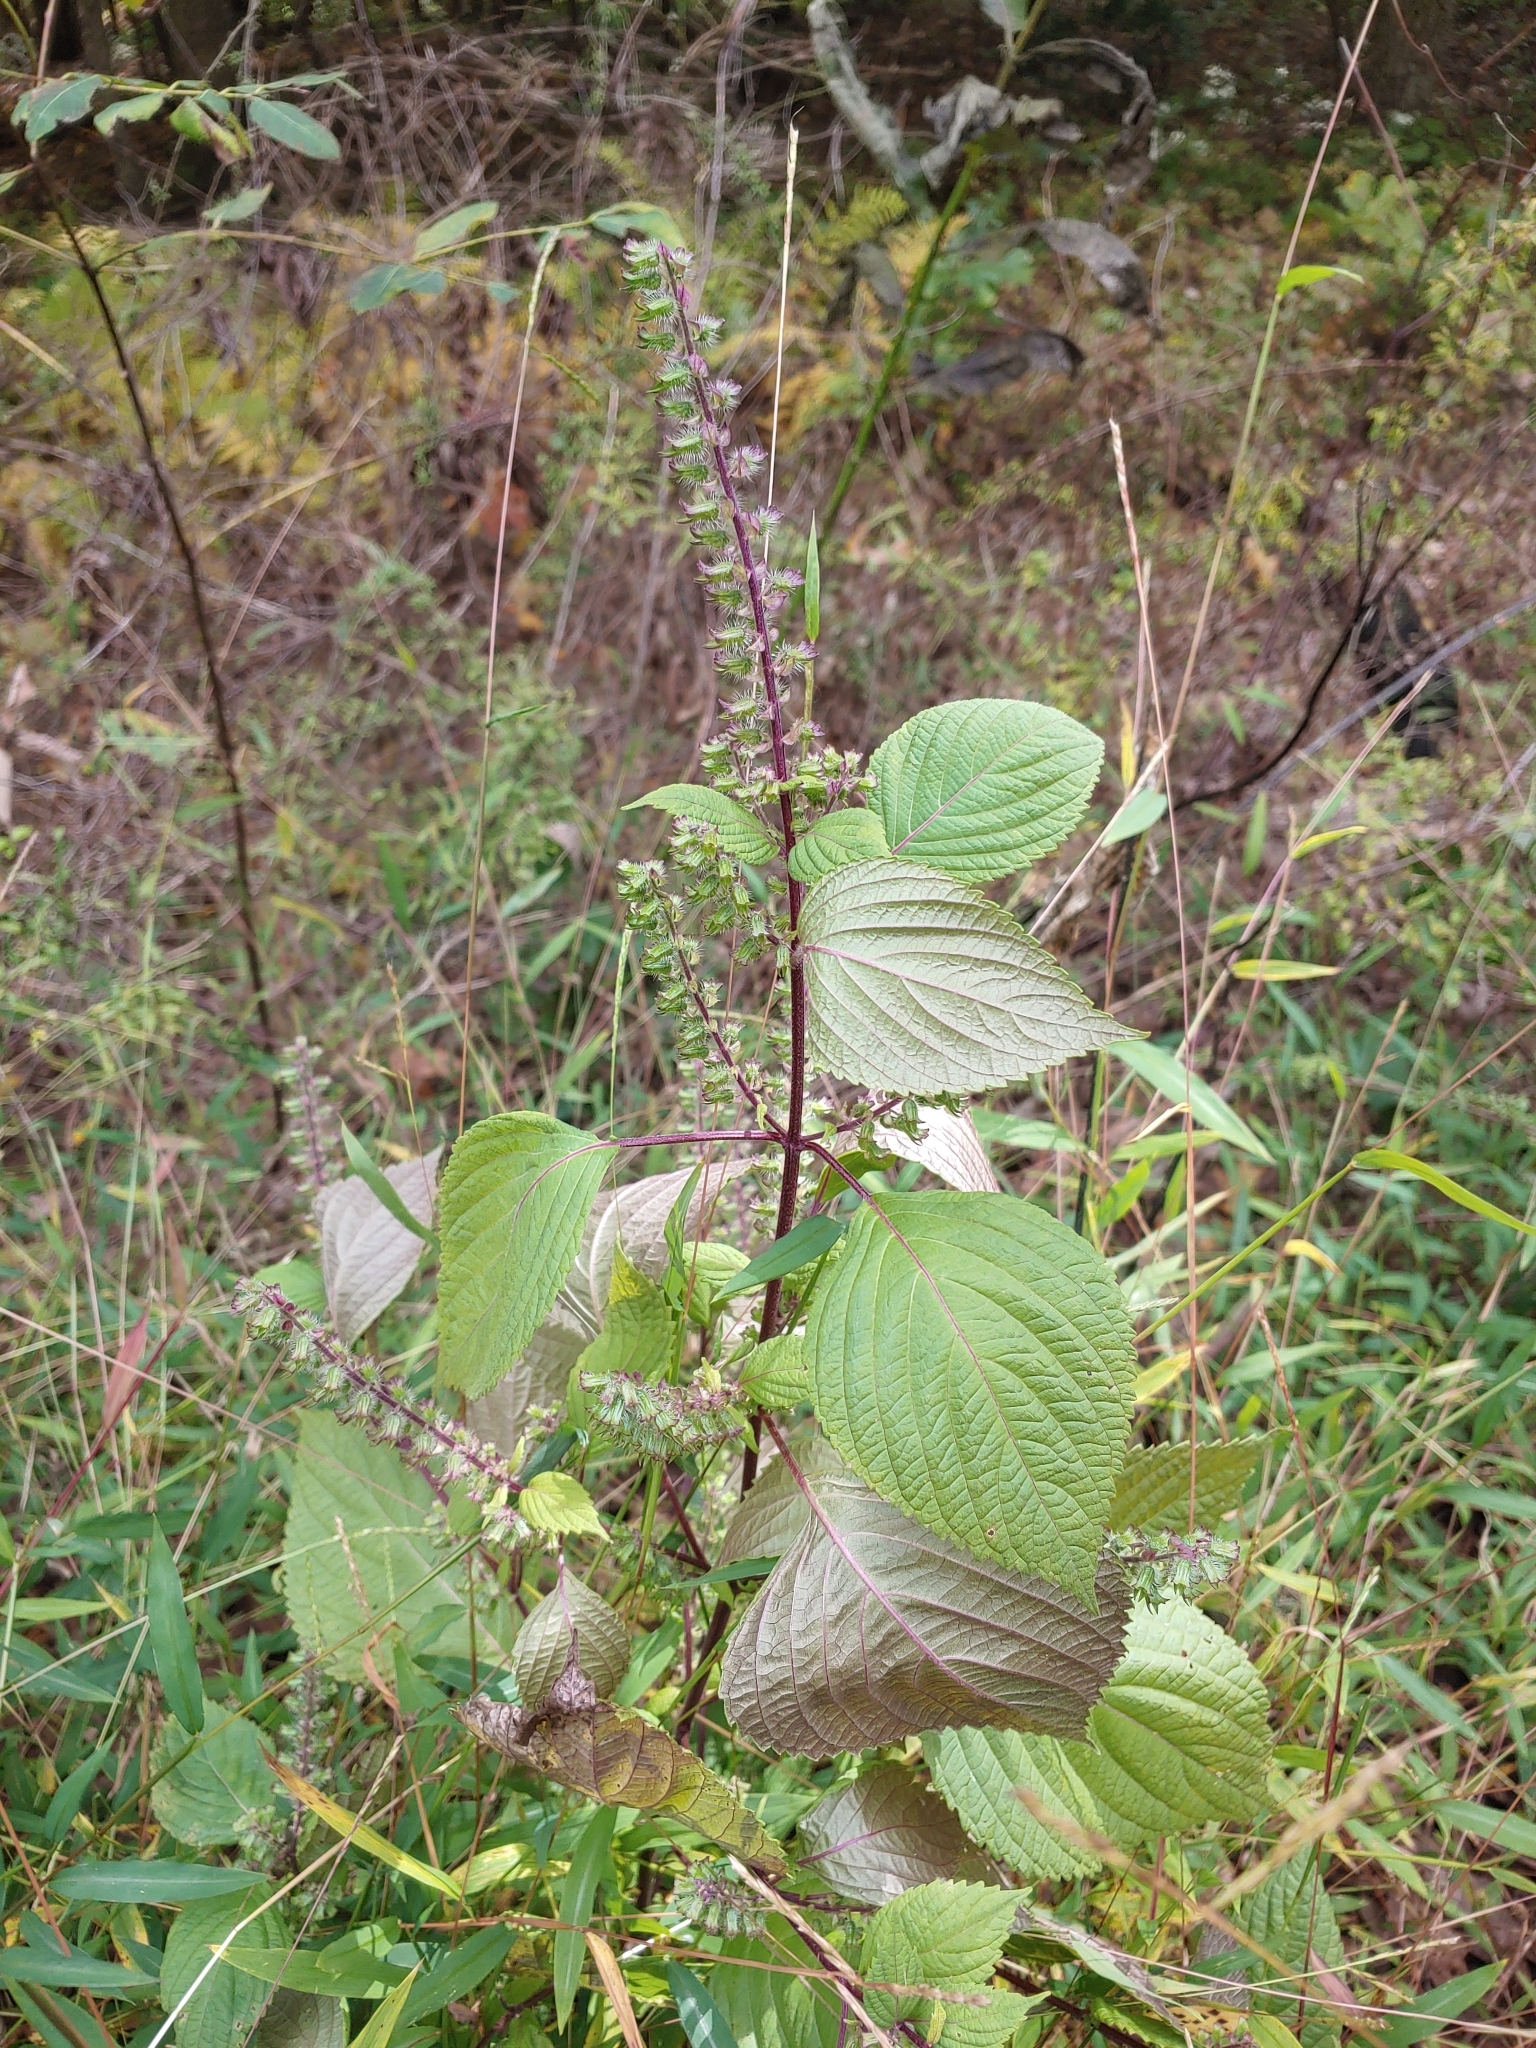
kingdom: Plantae
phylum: Tracheophyta
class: Magnoliopsida
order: Lamiales
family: Lamiaceae
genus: Perilla
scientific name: Perilla frutescens
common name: Perilla
